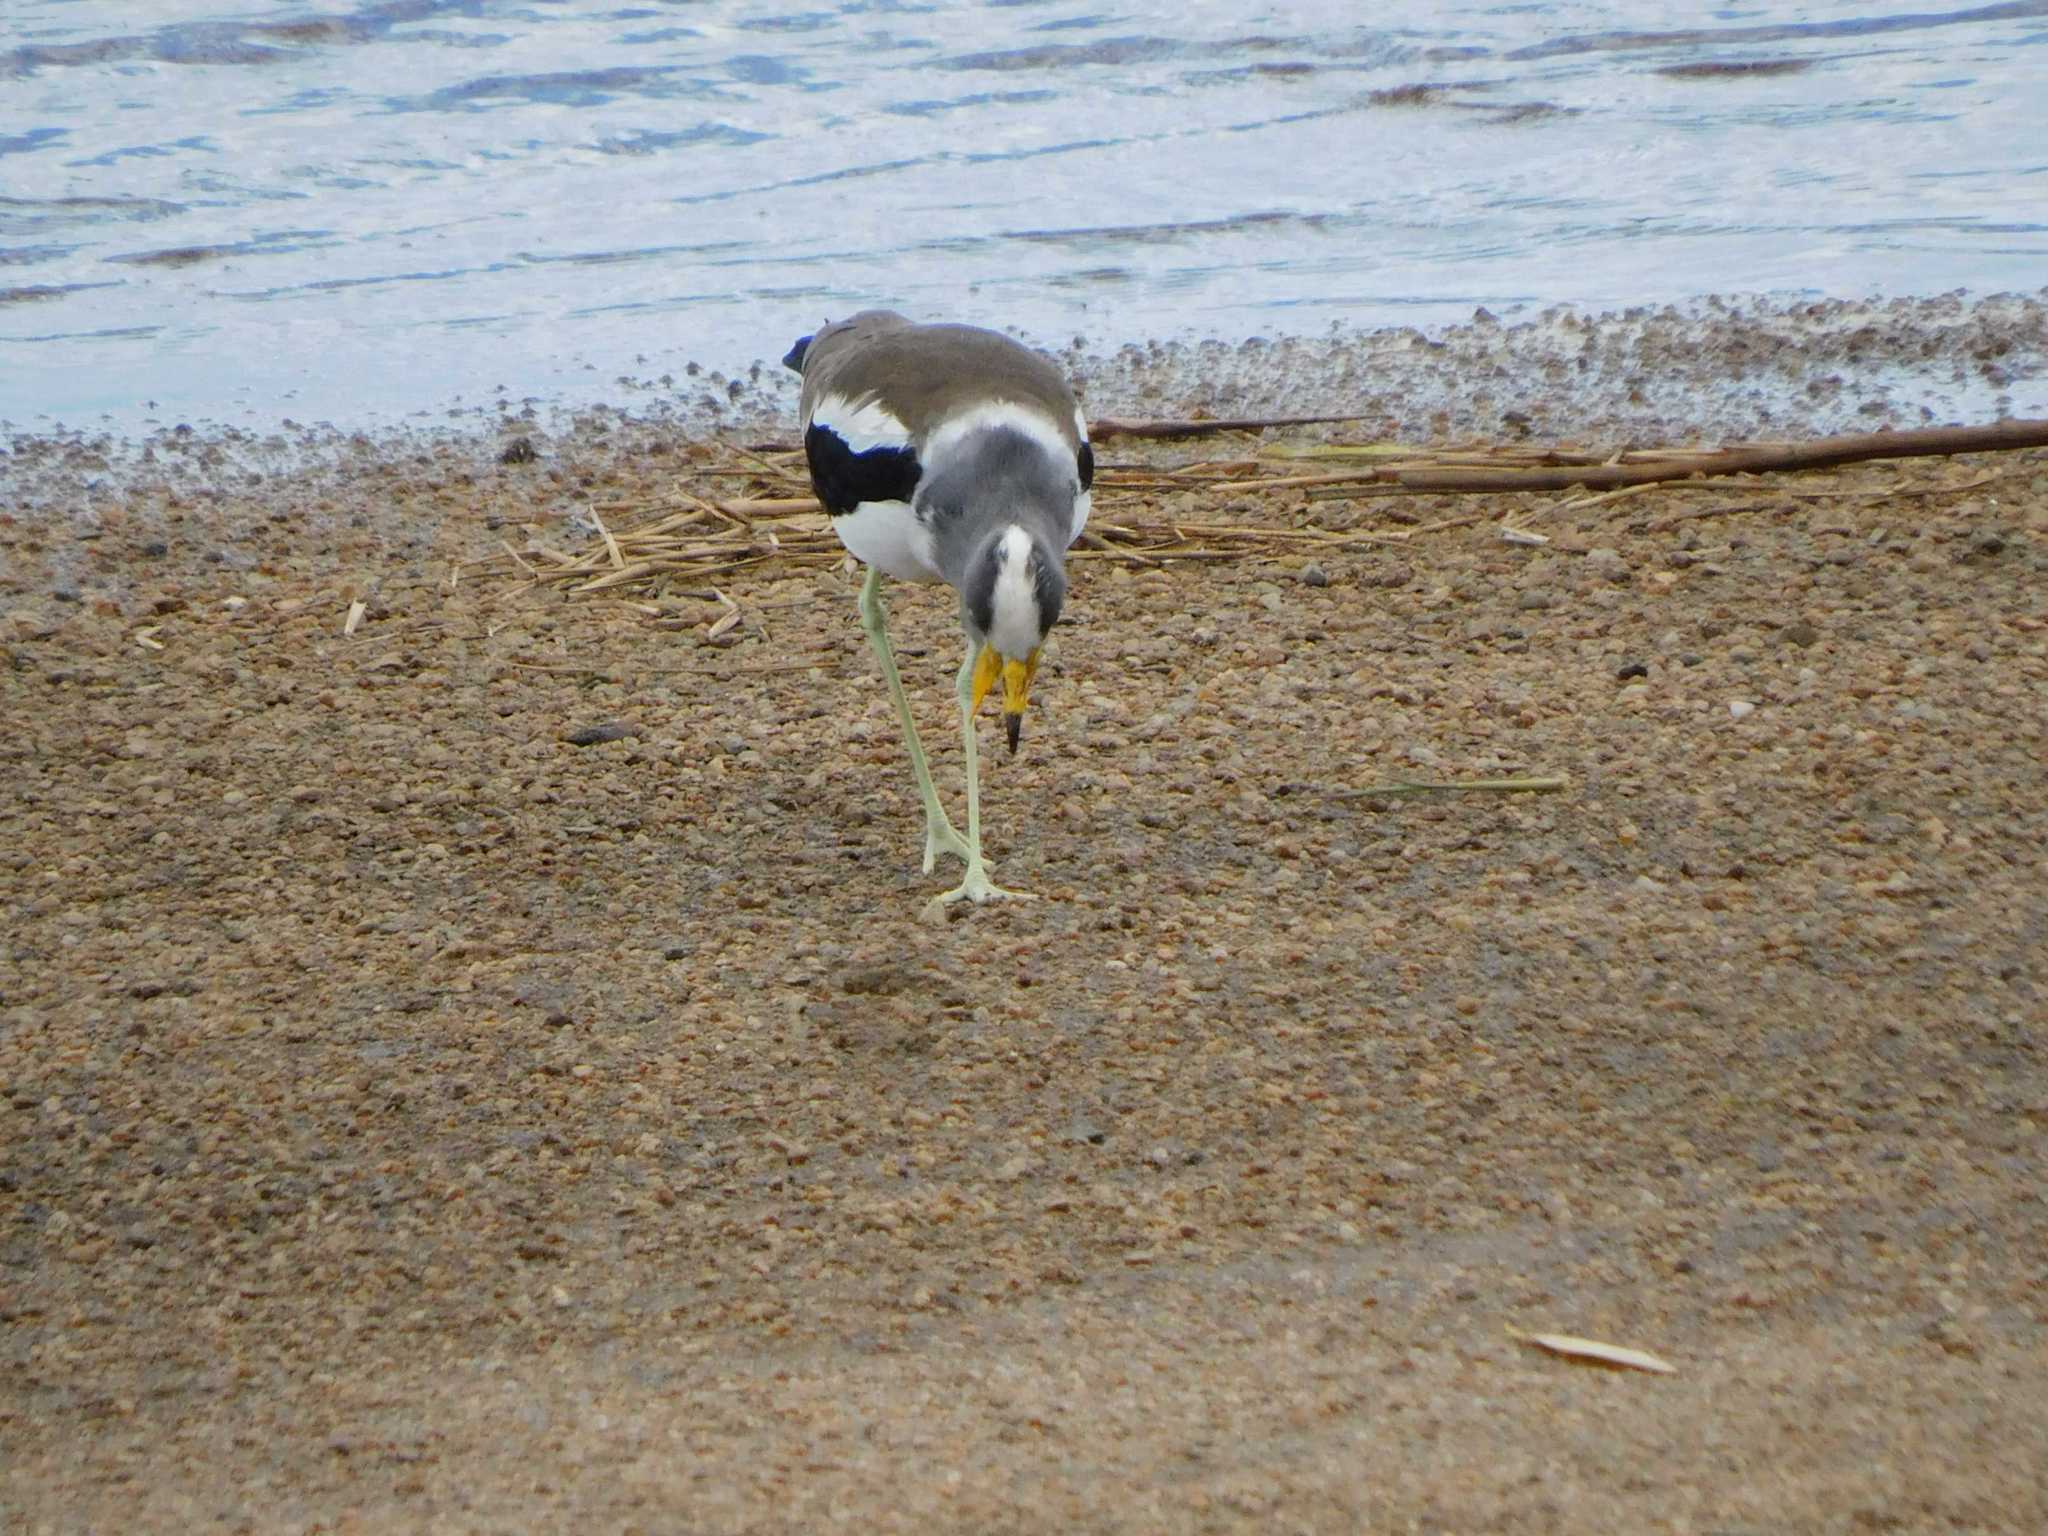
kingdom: Animalia
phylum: Chordata
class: Aves
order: Charadriiformes
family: Charadriidae
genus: Vanellus
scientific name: Vanellus albiceps
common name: White-crowned lapwing
